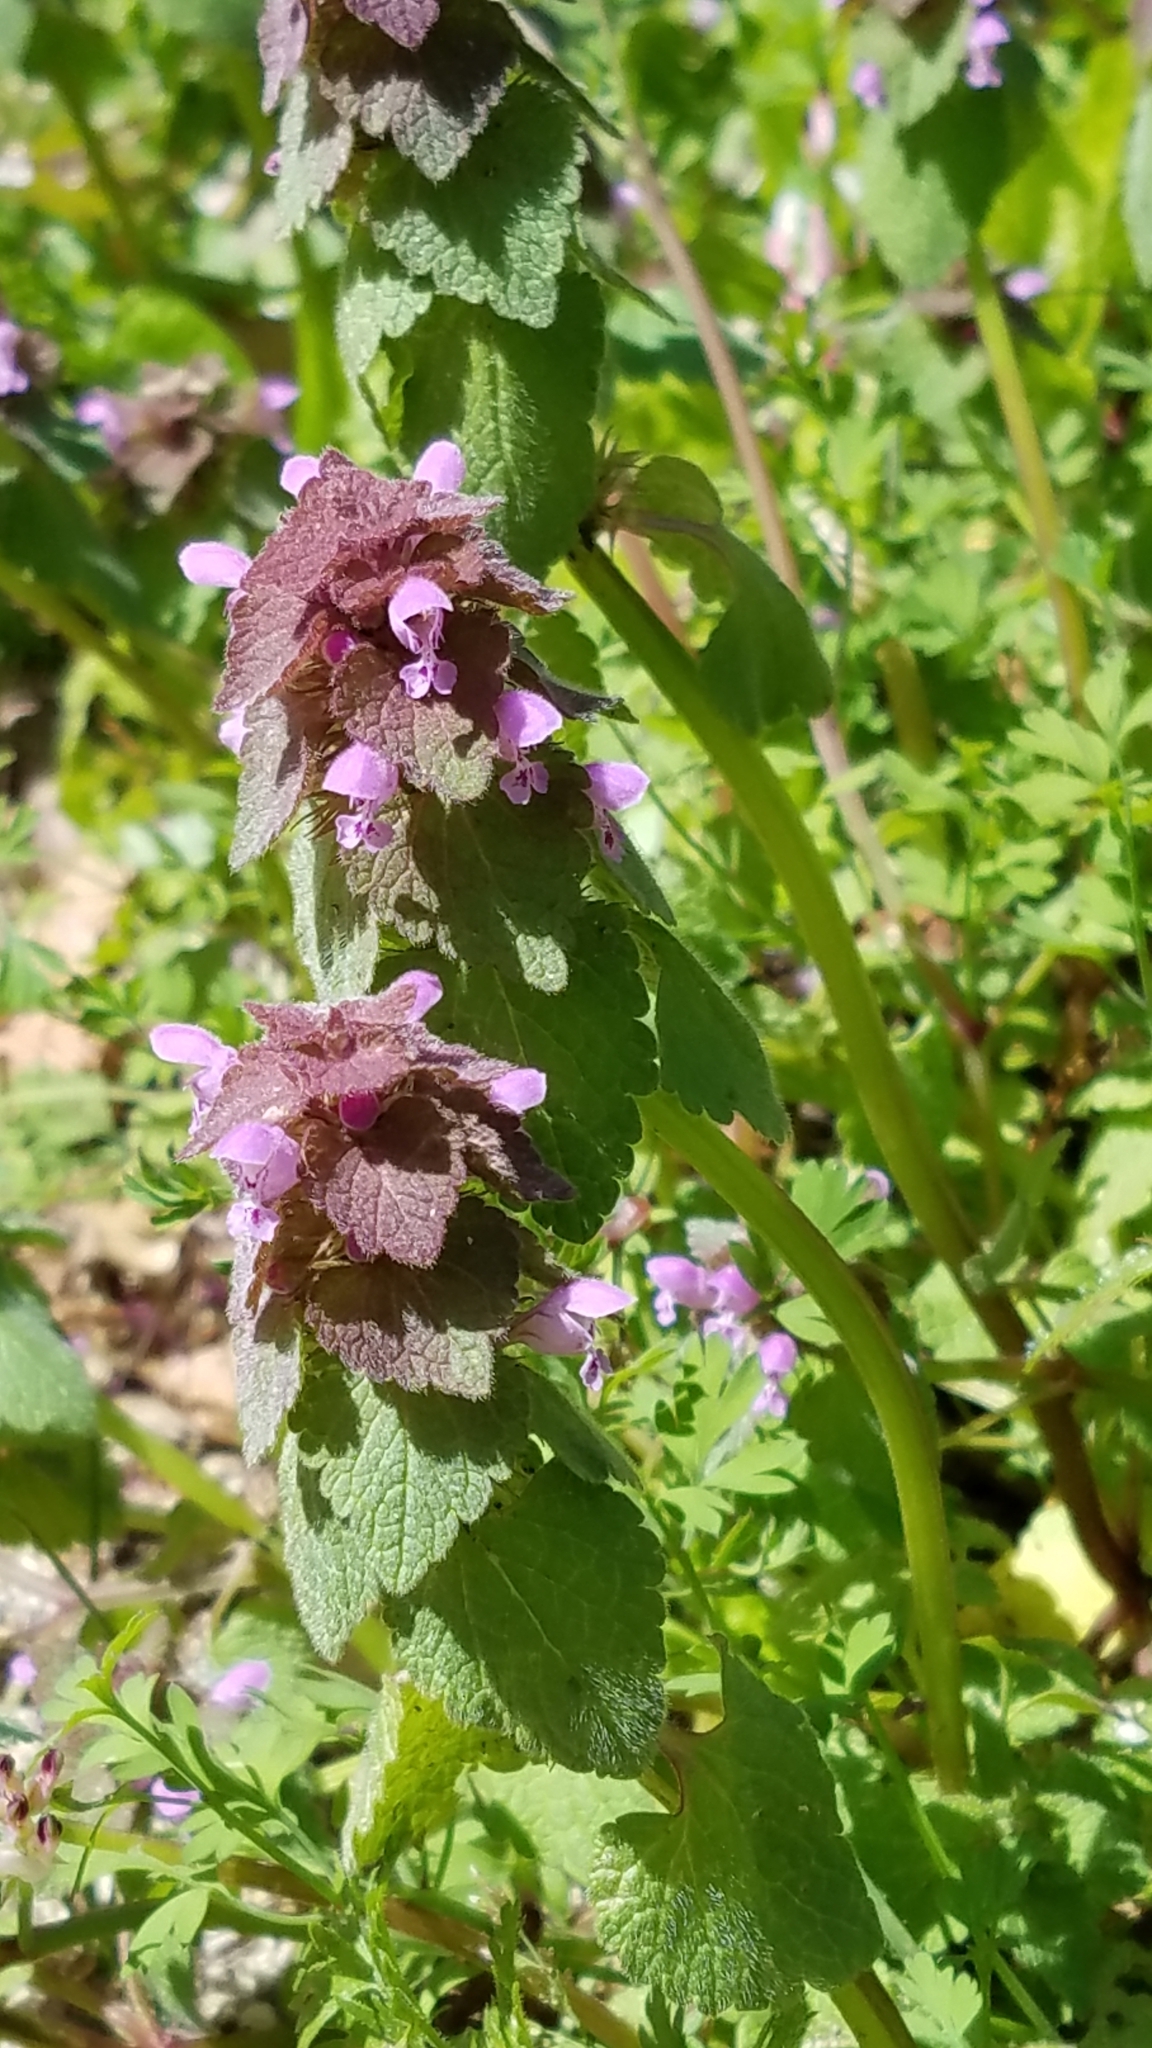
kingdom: Plantae
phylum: Tracheophyta
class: Magnoliopsida
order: Lamiales
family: Lamiaceae
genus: Lamium
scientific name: Lamium purpureum
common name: Red dead-nettle
